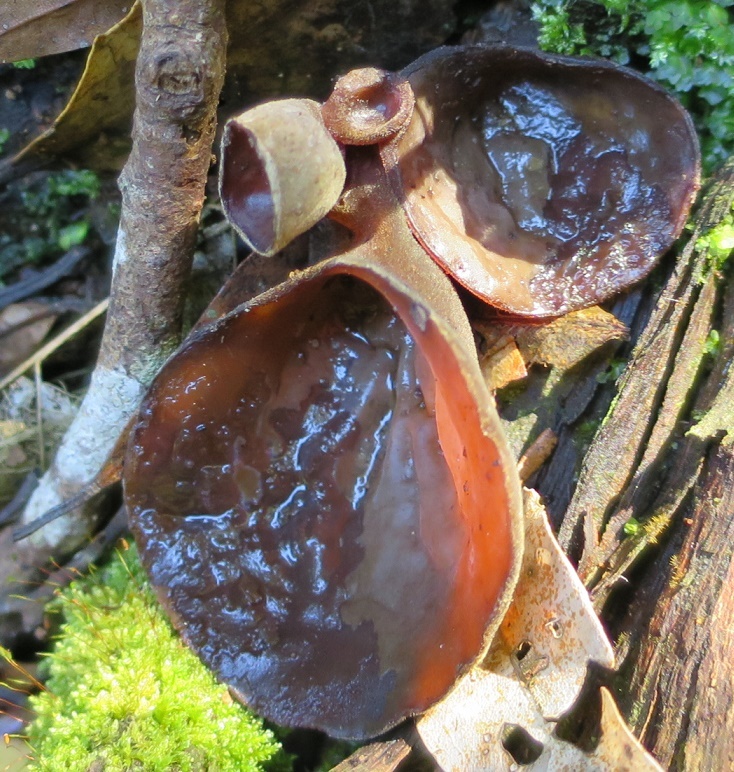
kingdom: Fungi
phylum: Basidiomycota
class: Agaricomycetes
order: Auriculariales
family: Auriculariaceae
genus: Auricularia
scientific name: Auricularia cornea
